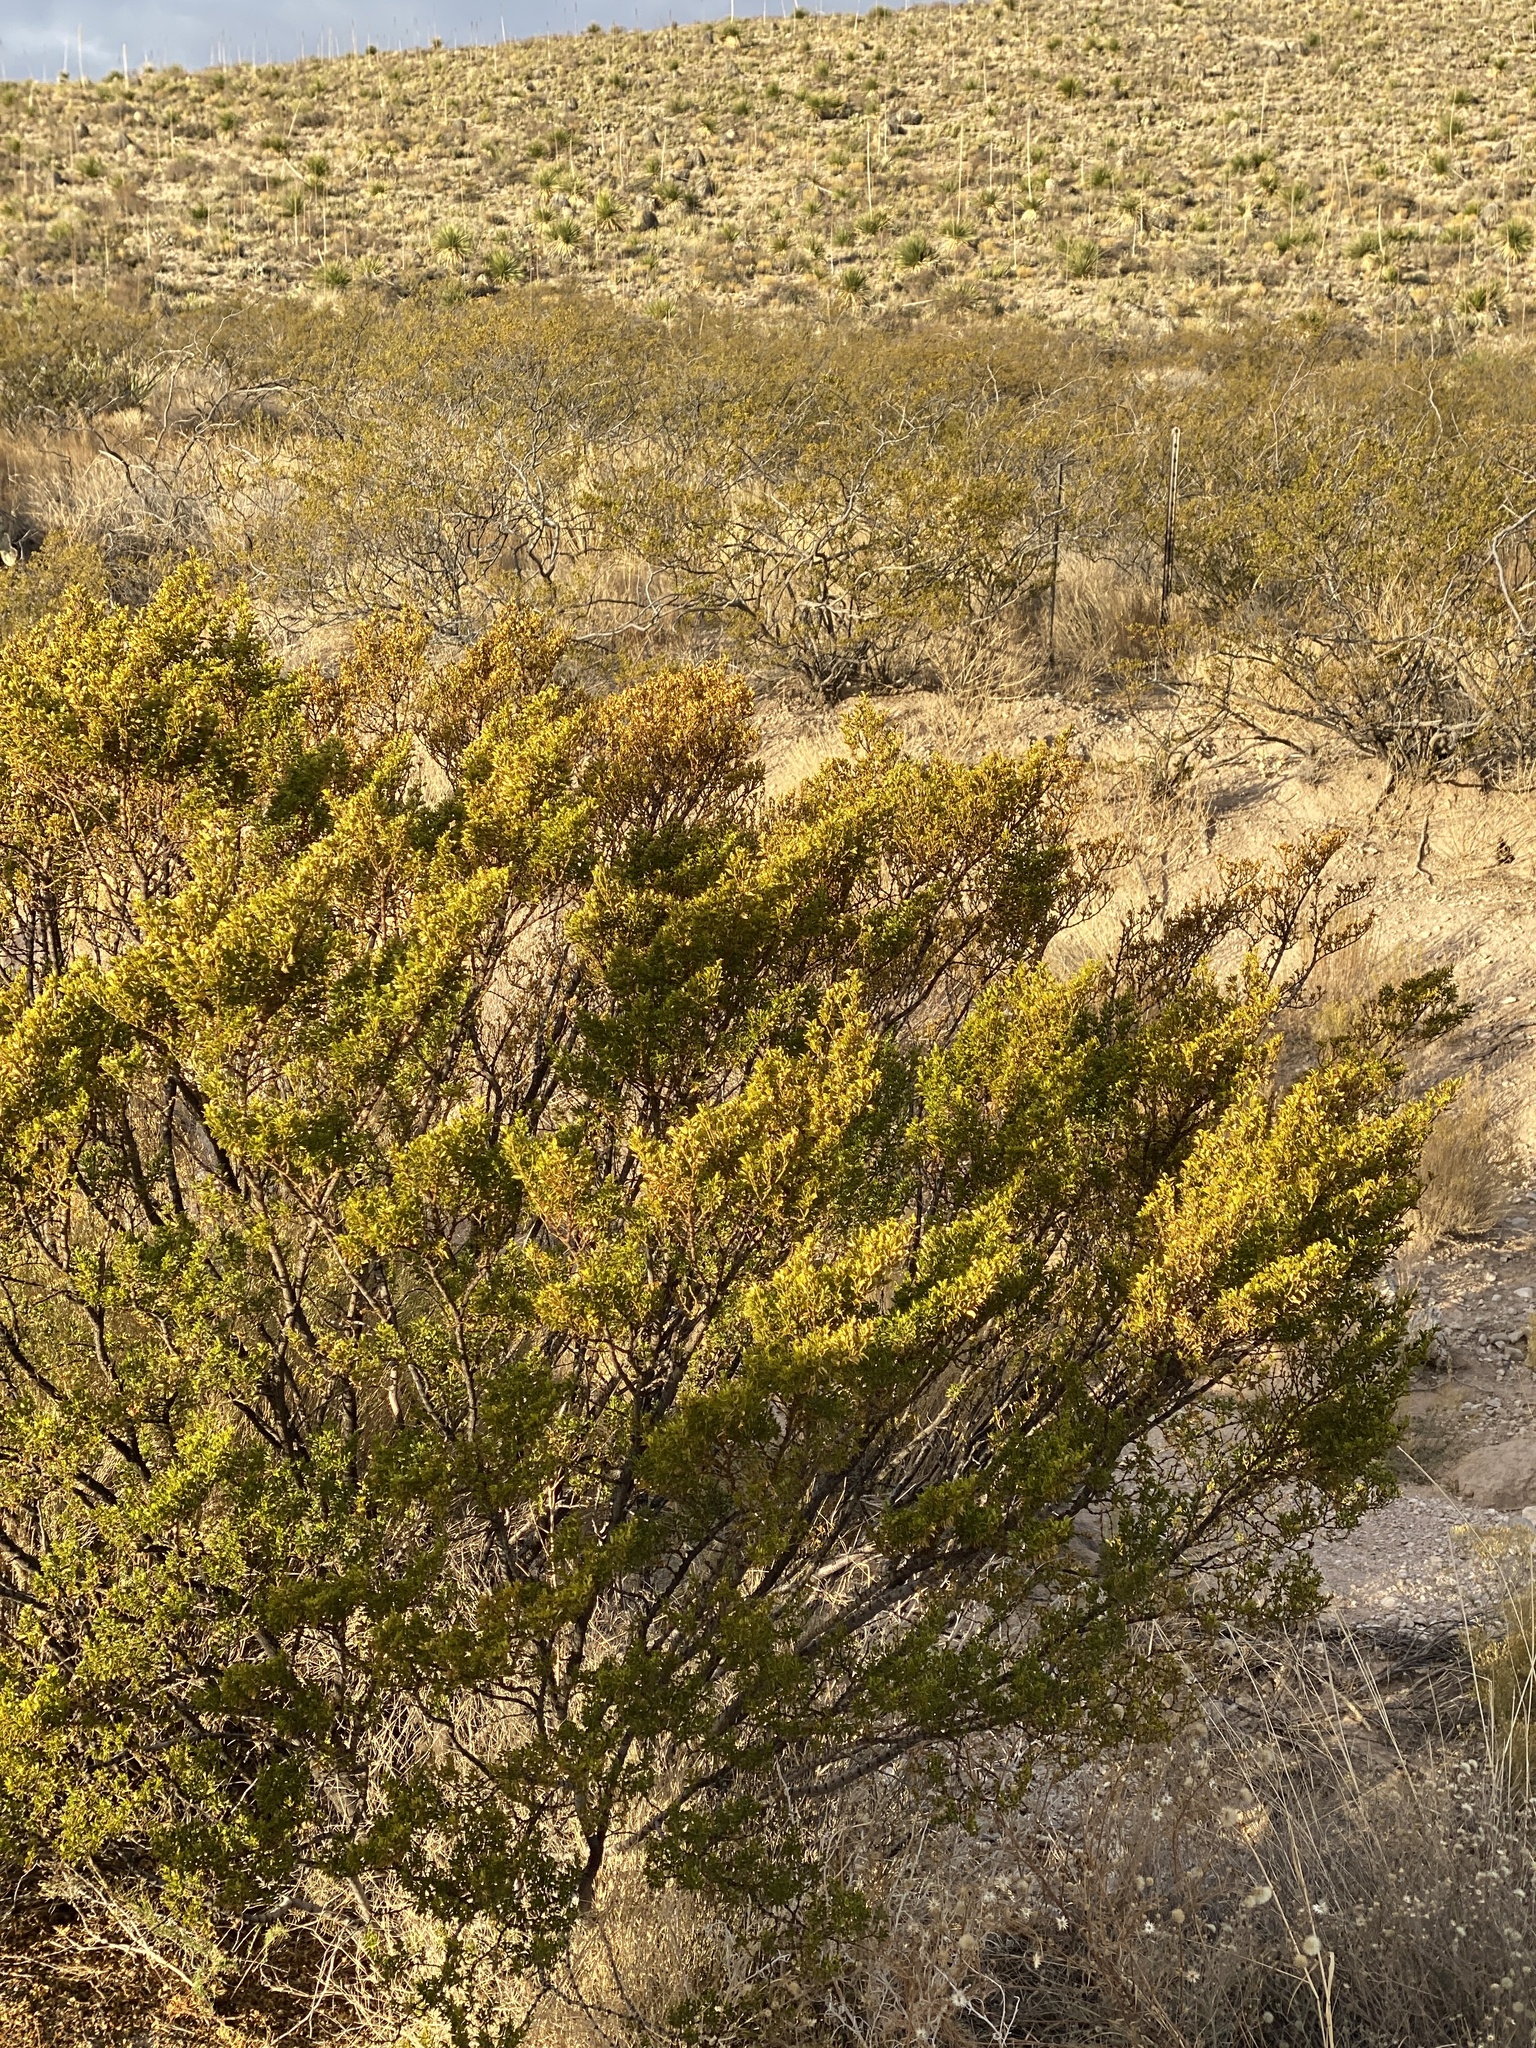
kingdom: Plantae
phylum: Tracheophyta
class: Magnoliopsida
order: Zygophyllales
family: Zygophyllaceae
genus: Larrea
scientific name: Larrea tridentata
